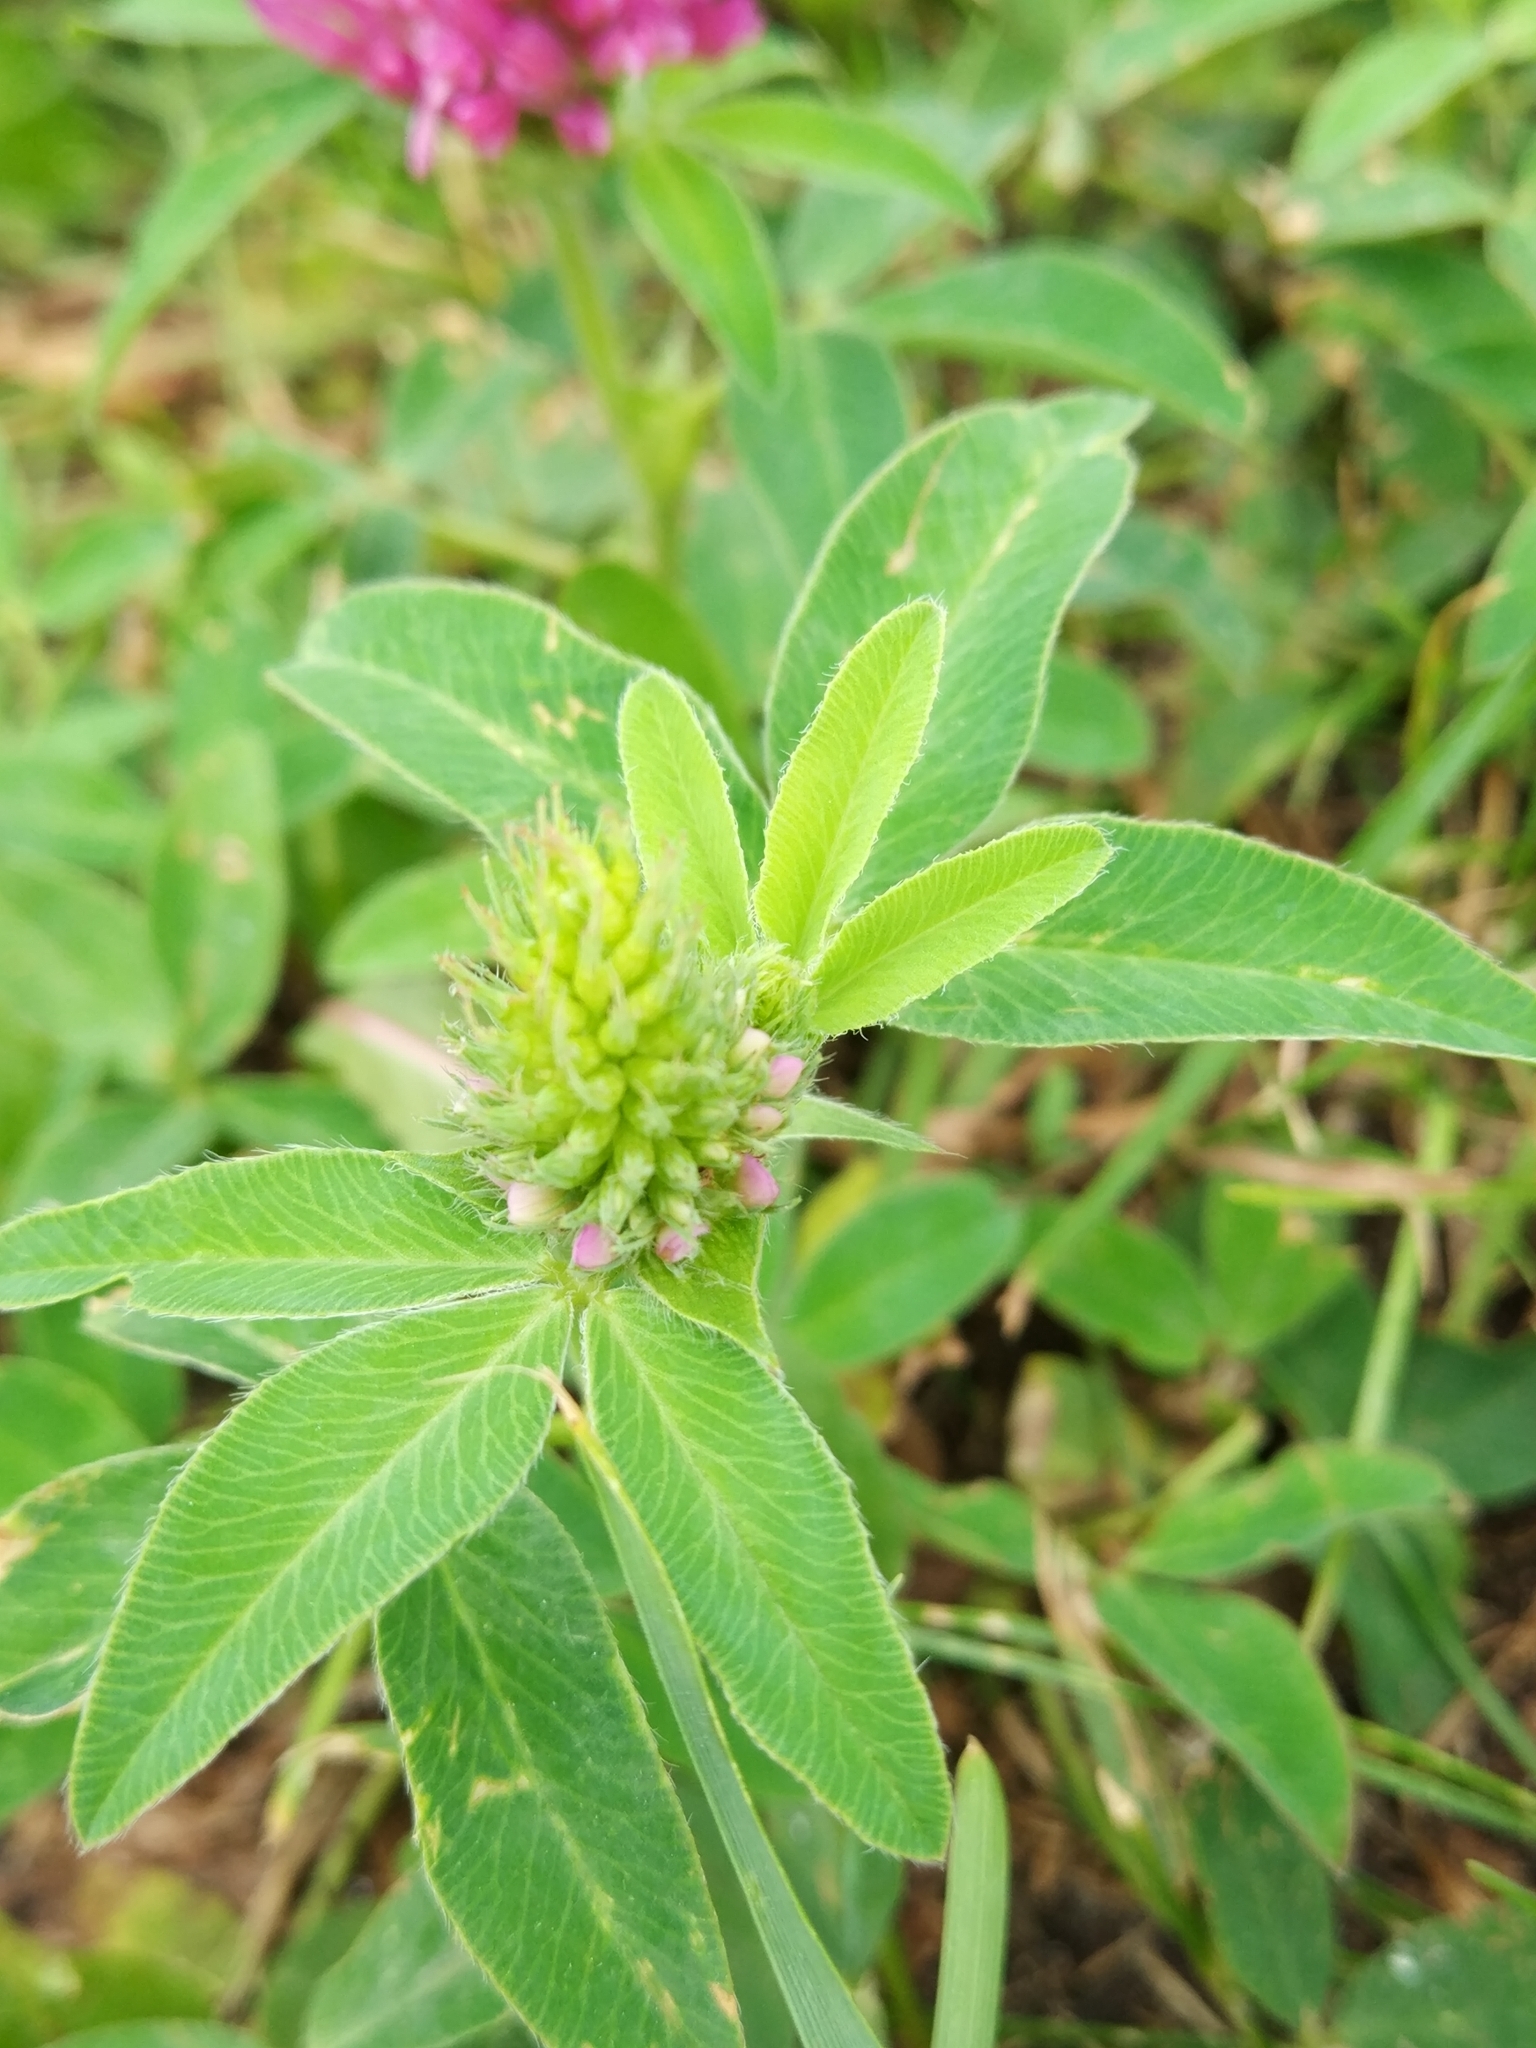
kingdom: Plantae
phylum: Tracheophyta
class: Magnoliopsida
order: Fabales
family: Fabaceae
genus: Trifolium
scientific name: Trifolium medium
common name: Zigzag clover
